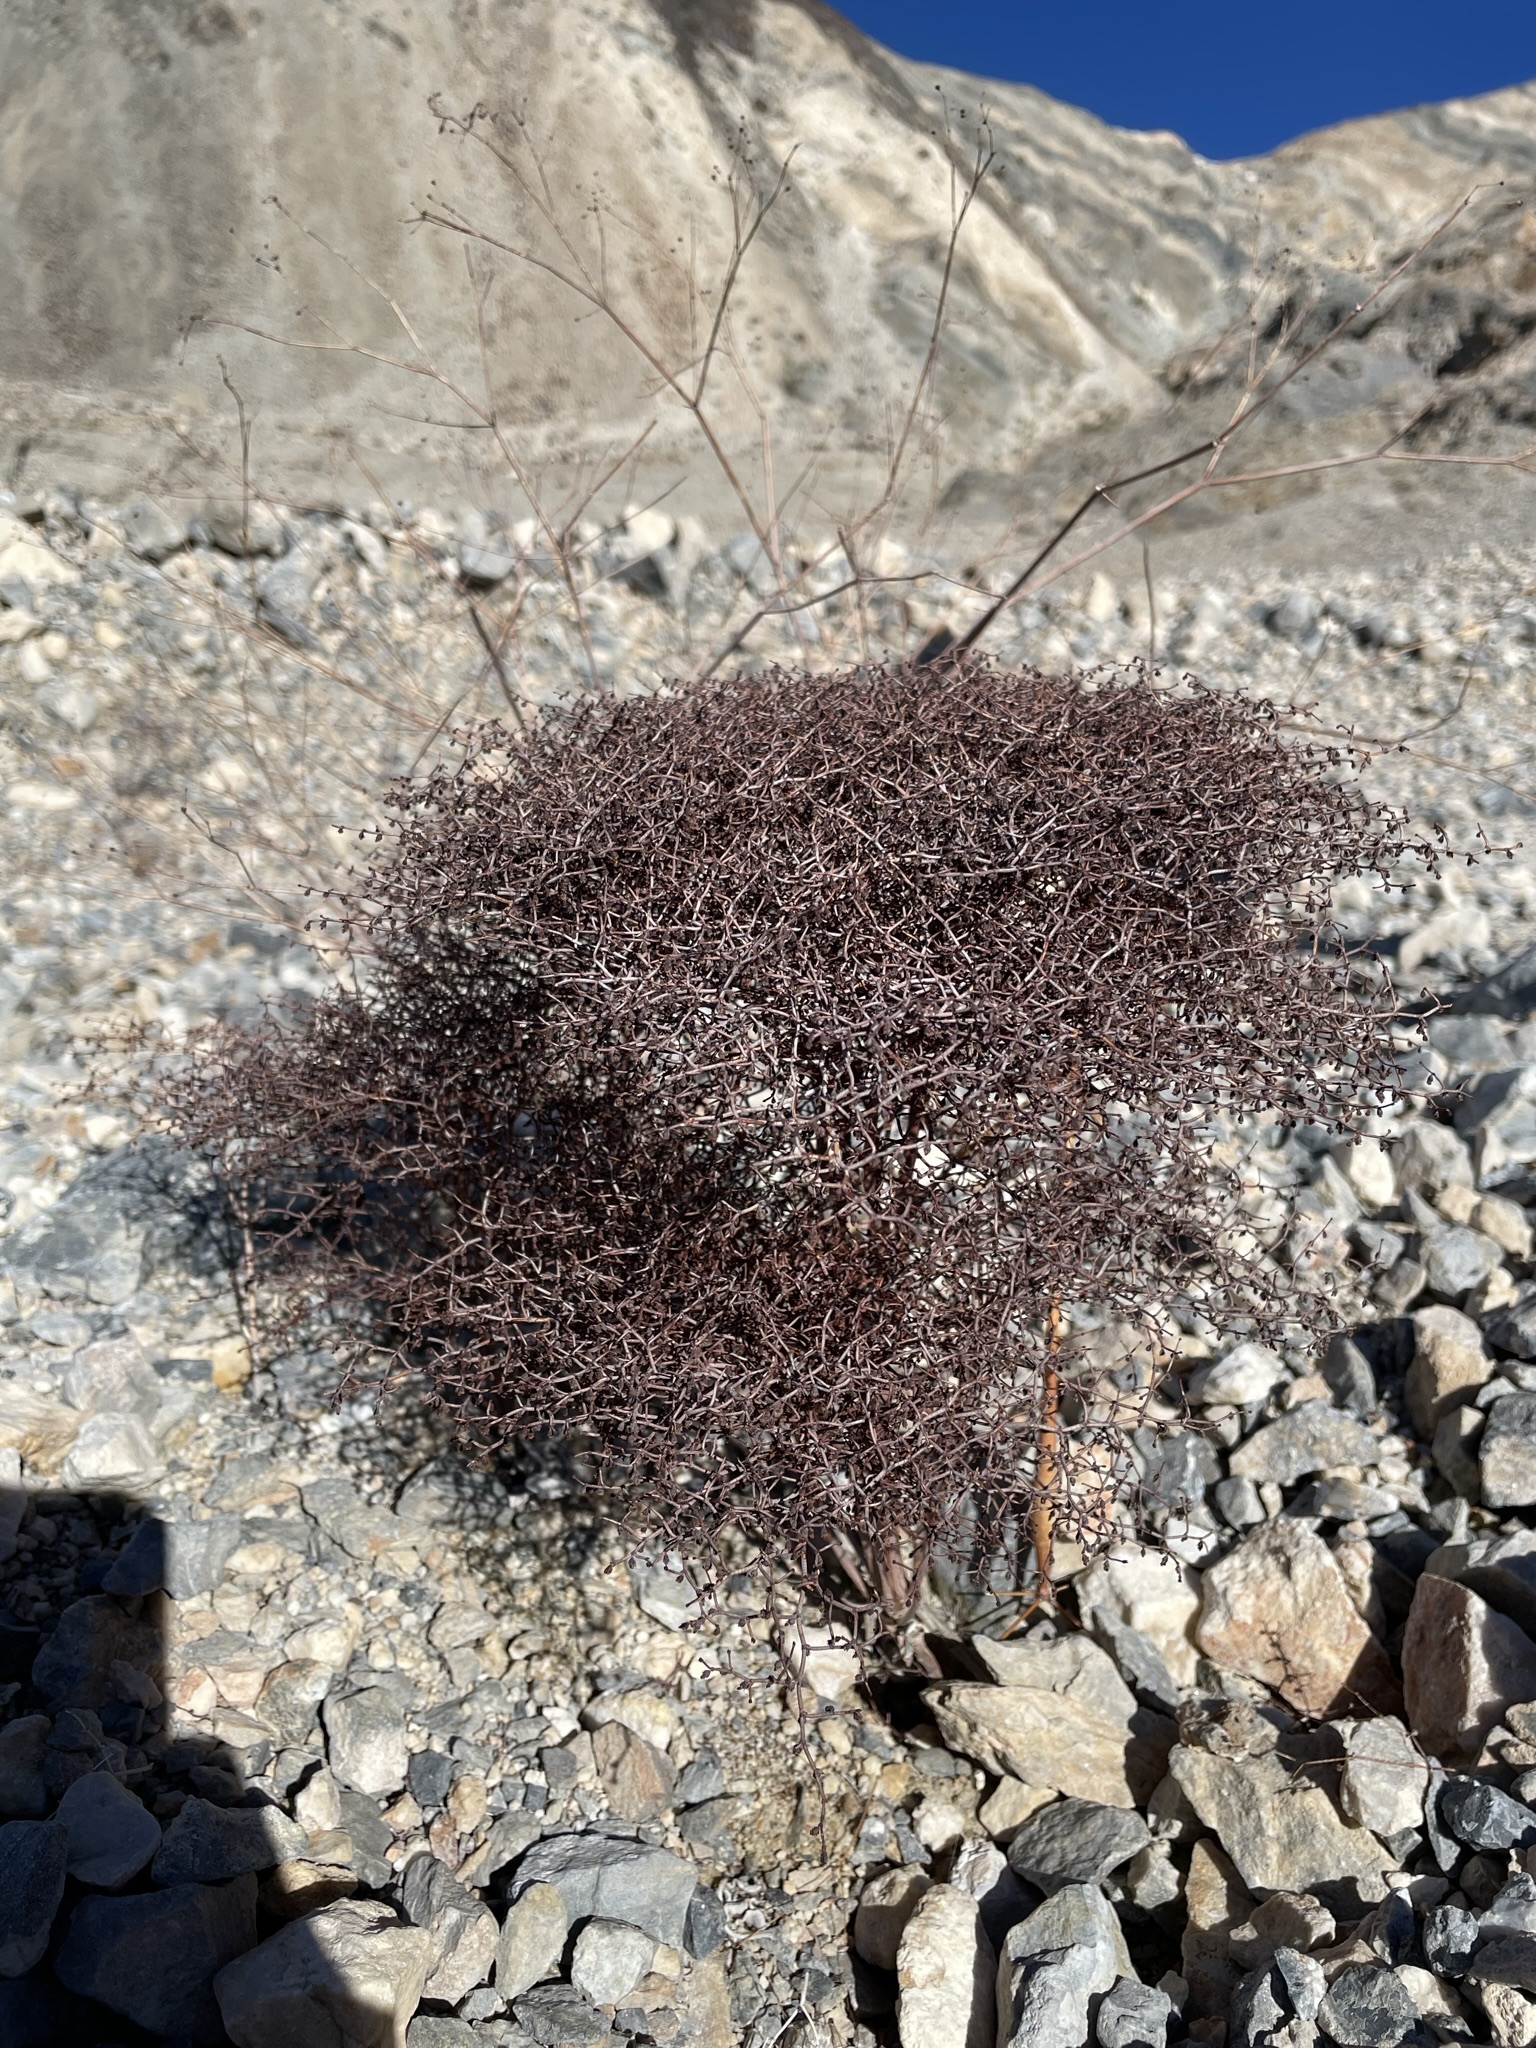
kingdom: Plantae
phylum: Tracheophyta
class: Magnoliopsida
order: Caryophyllales
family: Polygonaceae
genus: Eriogonum
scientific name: Eriogonum rixfordii
